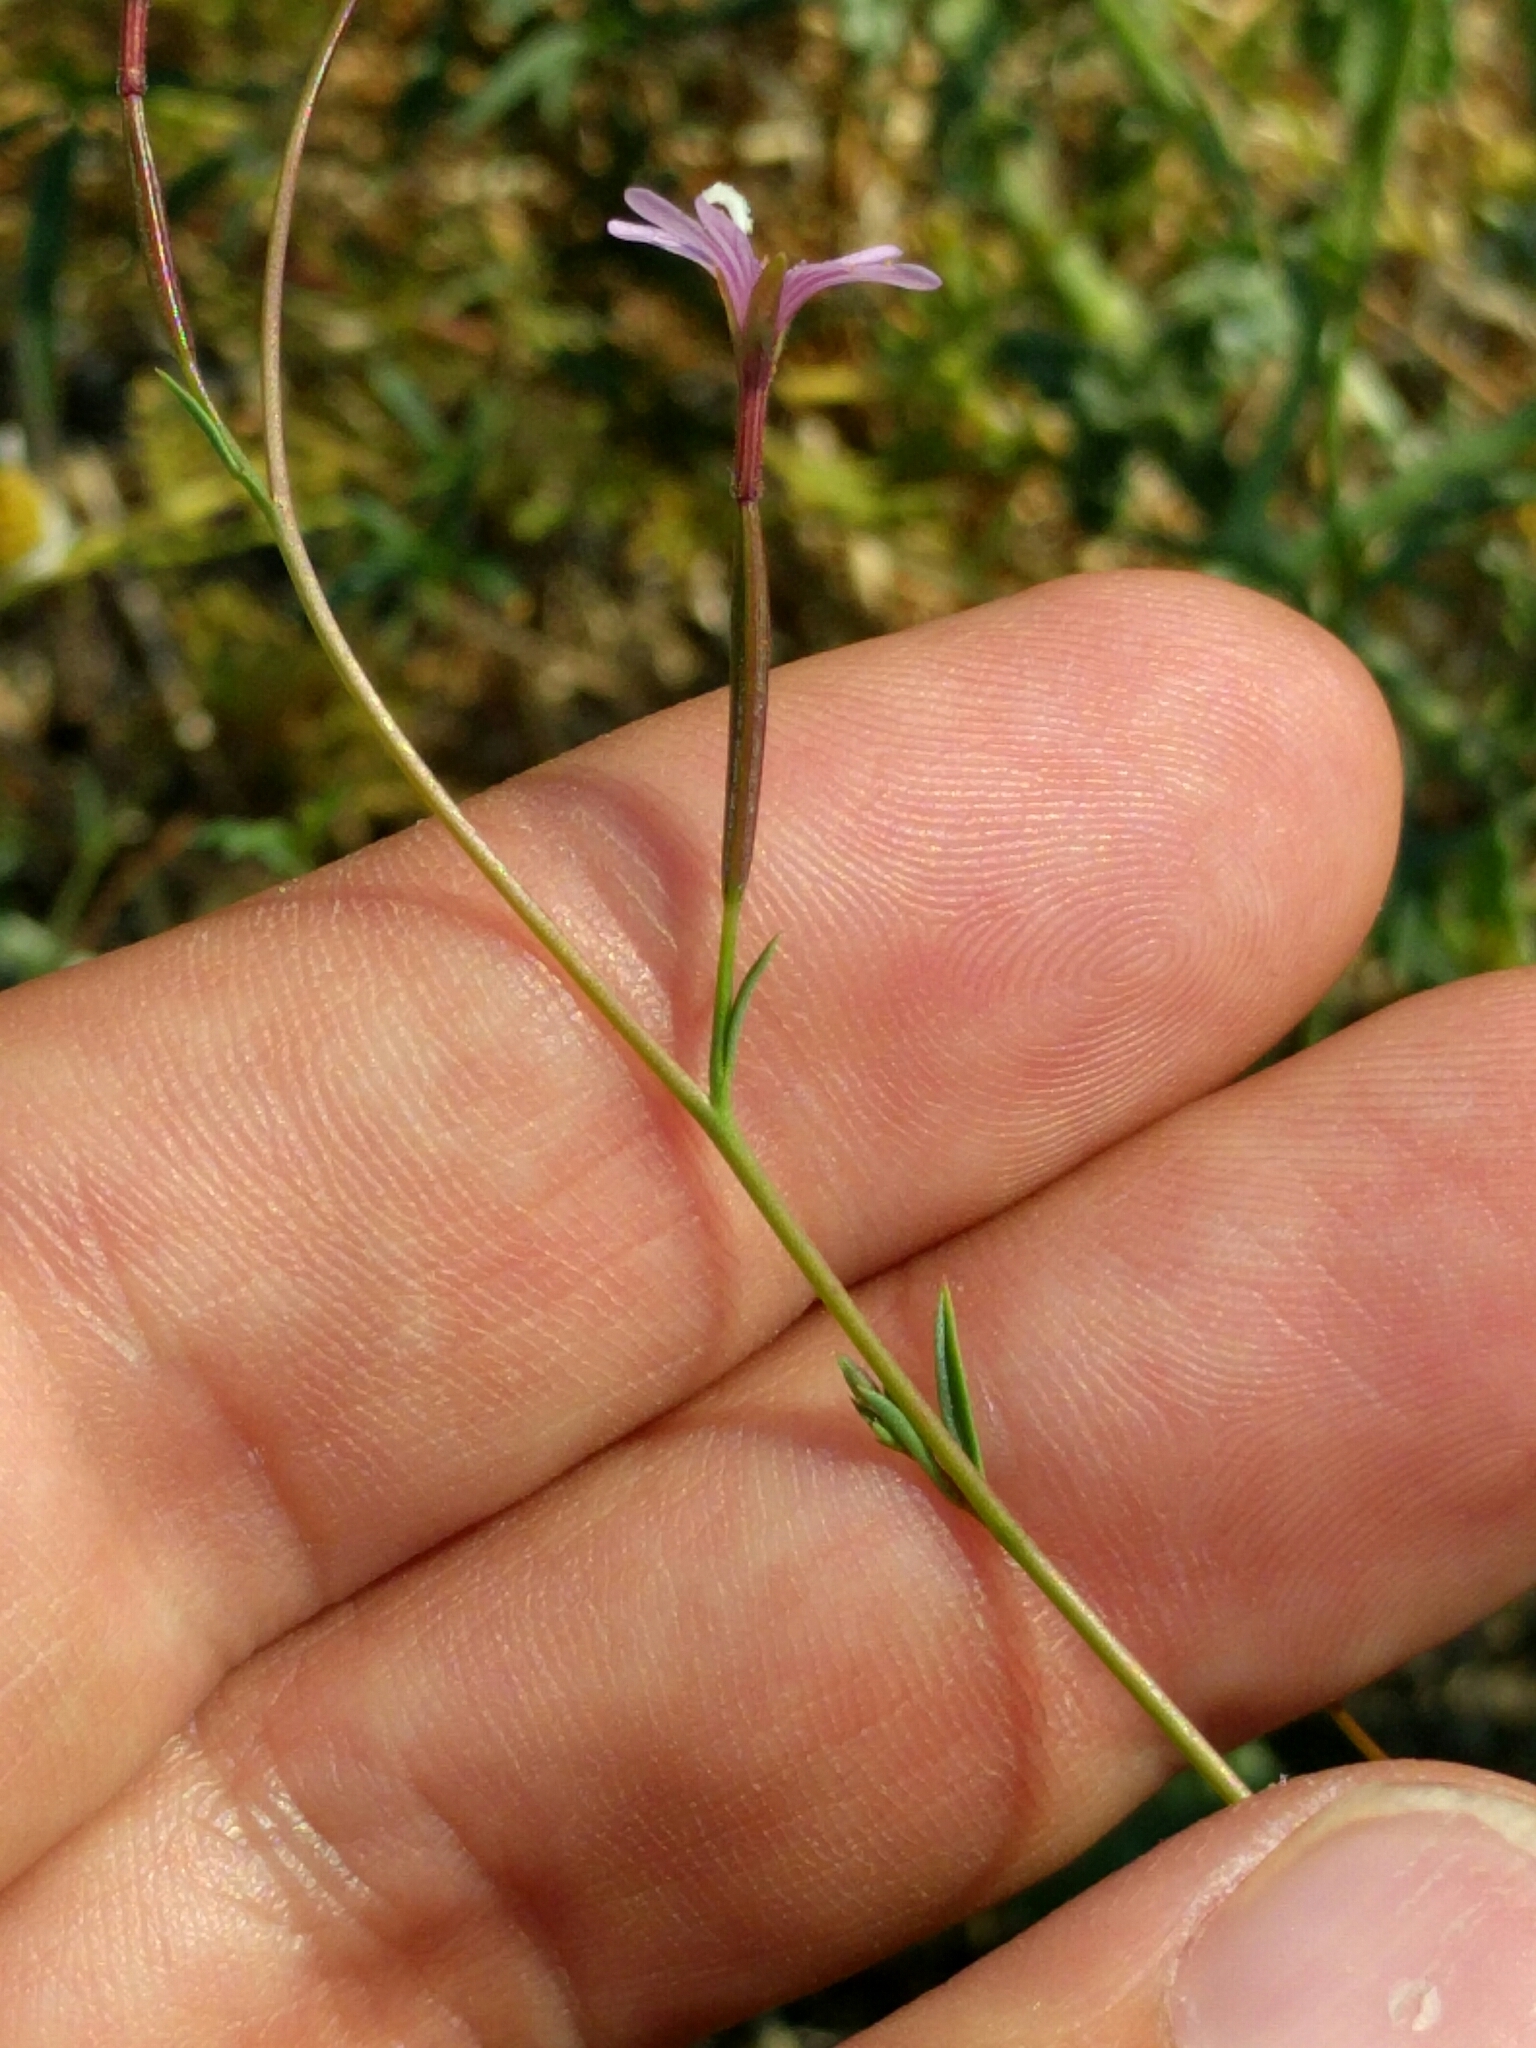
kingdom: Plantae
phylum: Tracheophyta
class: Magnoliopsida
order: Myrtales
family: Onagraceae
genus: Epilobium
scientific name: Epilobium brachycarpum
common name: Annual willowherb
